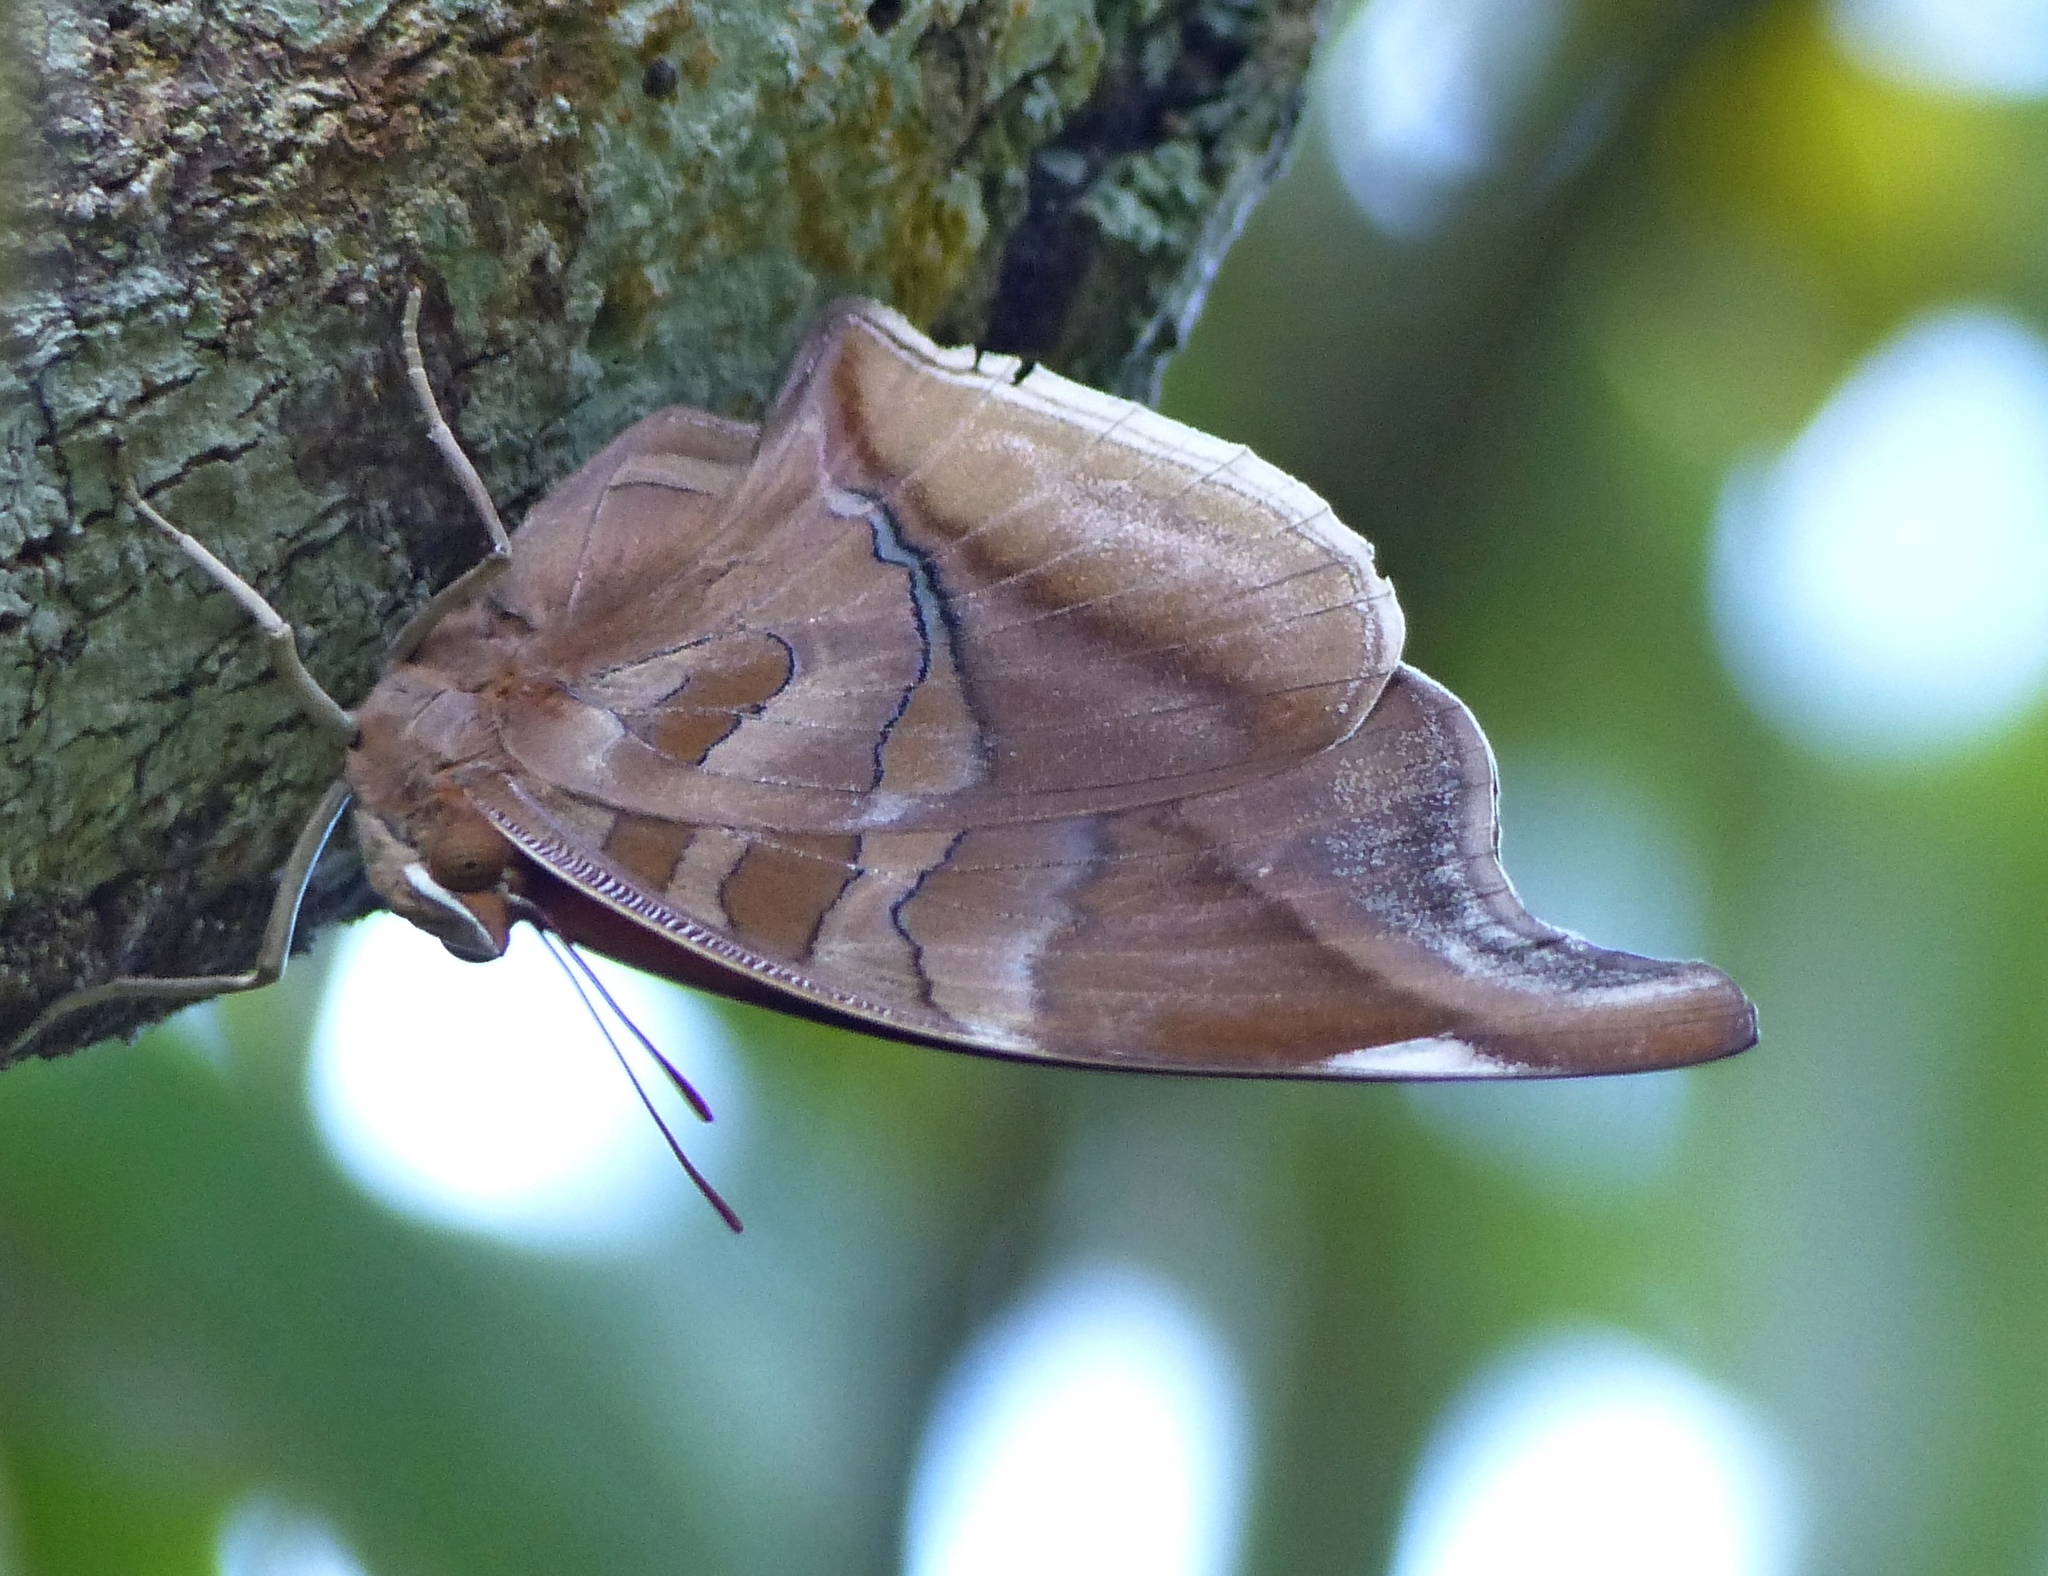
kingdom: Animalia
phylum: Arthropoda
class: Insecta
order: Lepidoptera
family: Nymphalidae
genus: Historis
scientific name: Historis odius
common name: Orion cecropian
